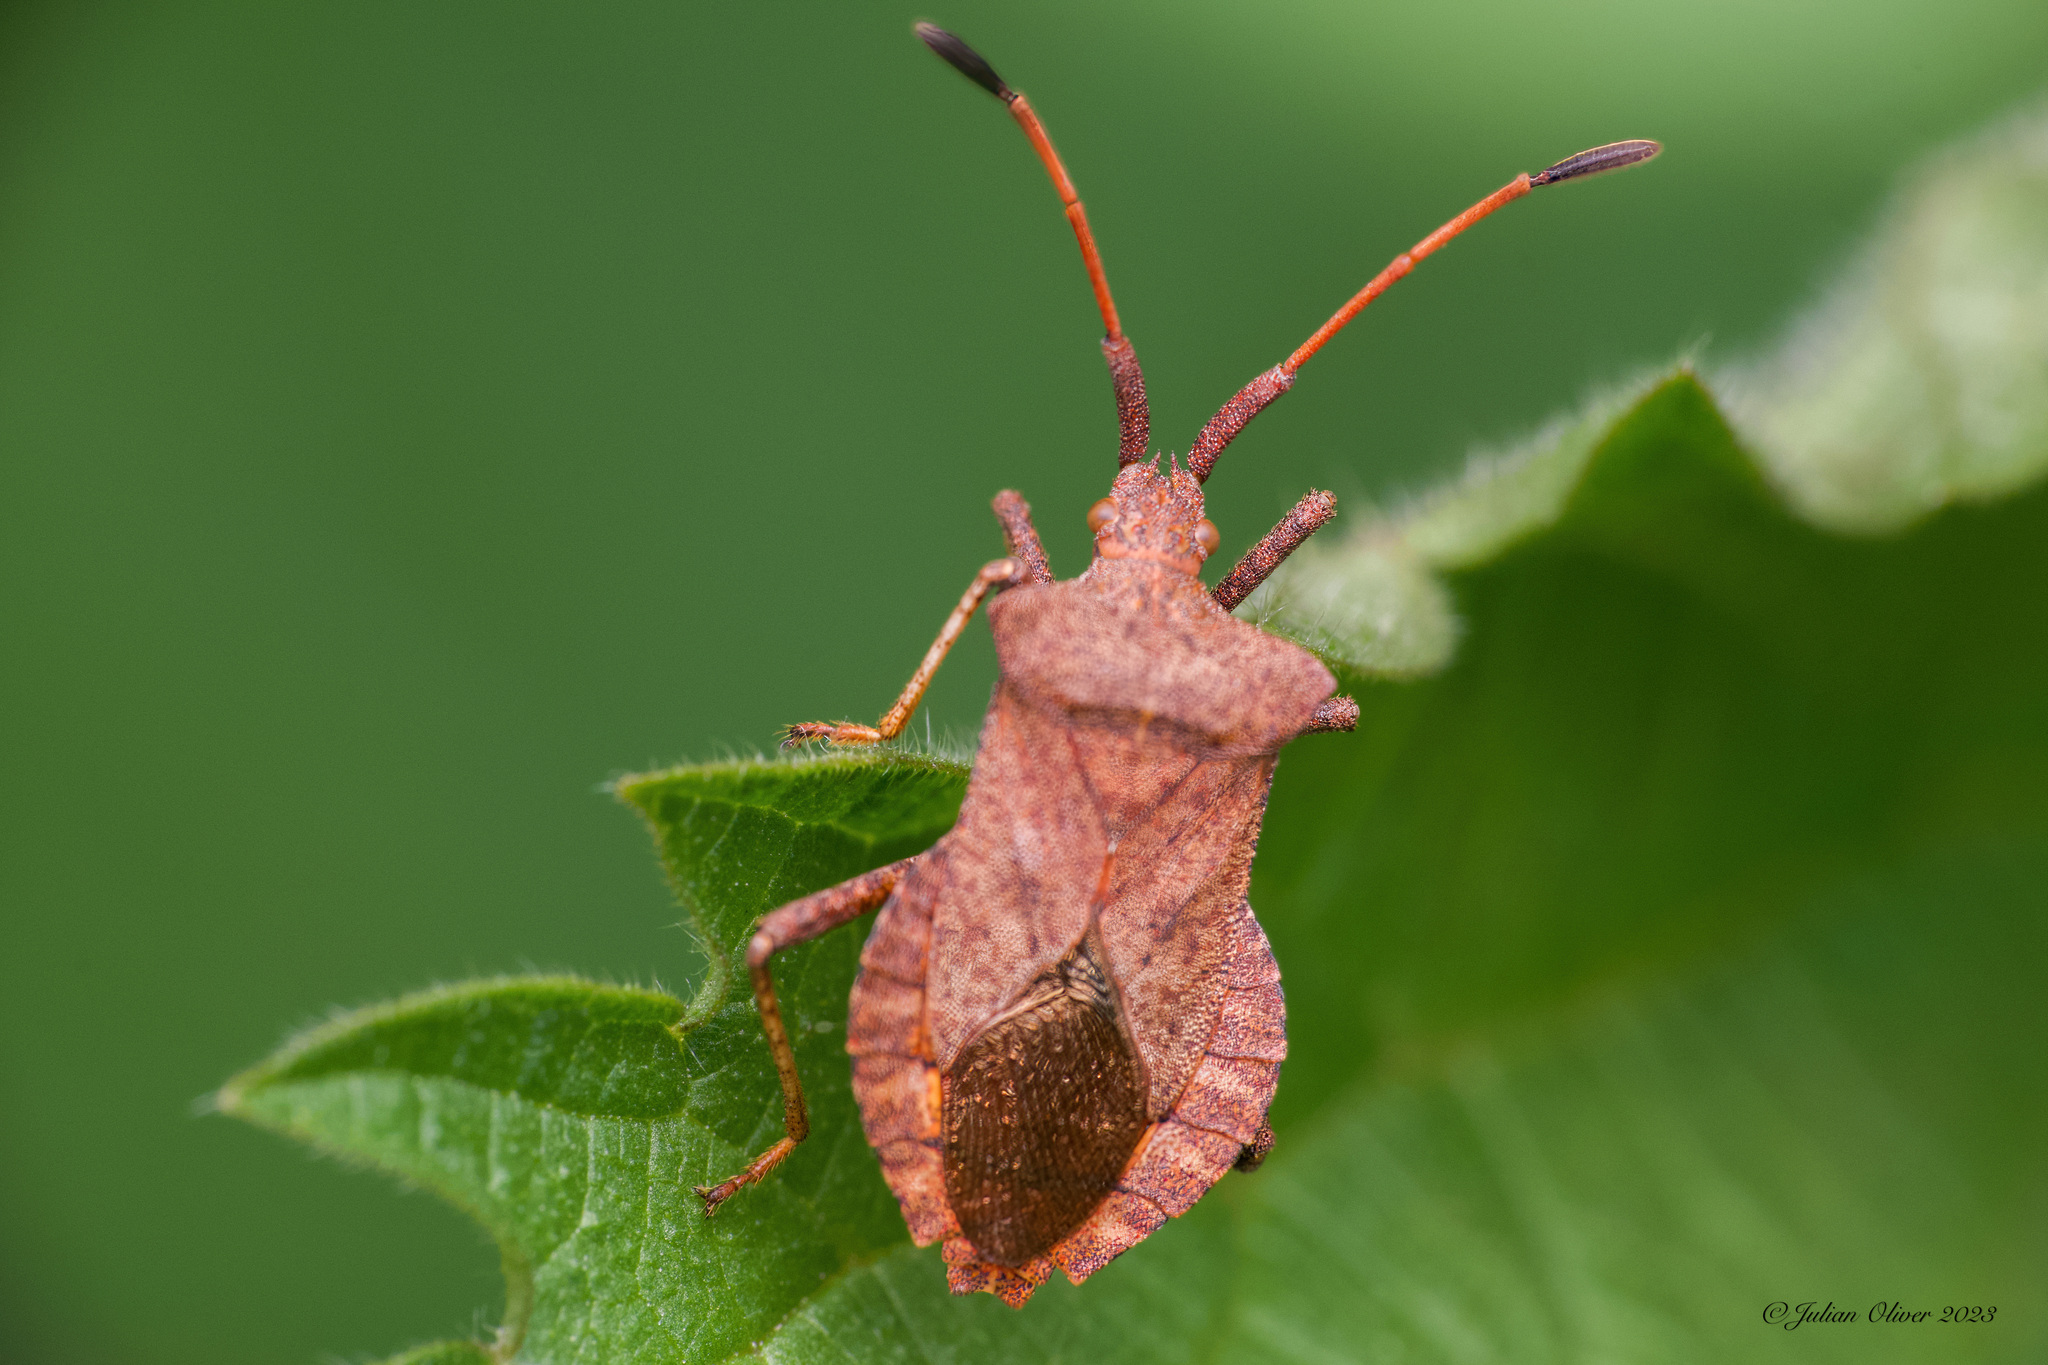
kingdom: Animalia
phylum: Arthropoda
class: Insecta
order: Hemiptera
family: Coreidae
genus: Coreus
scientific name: Coreus marginatus
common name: Dock bug
